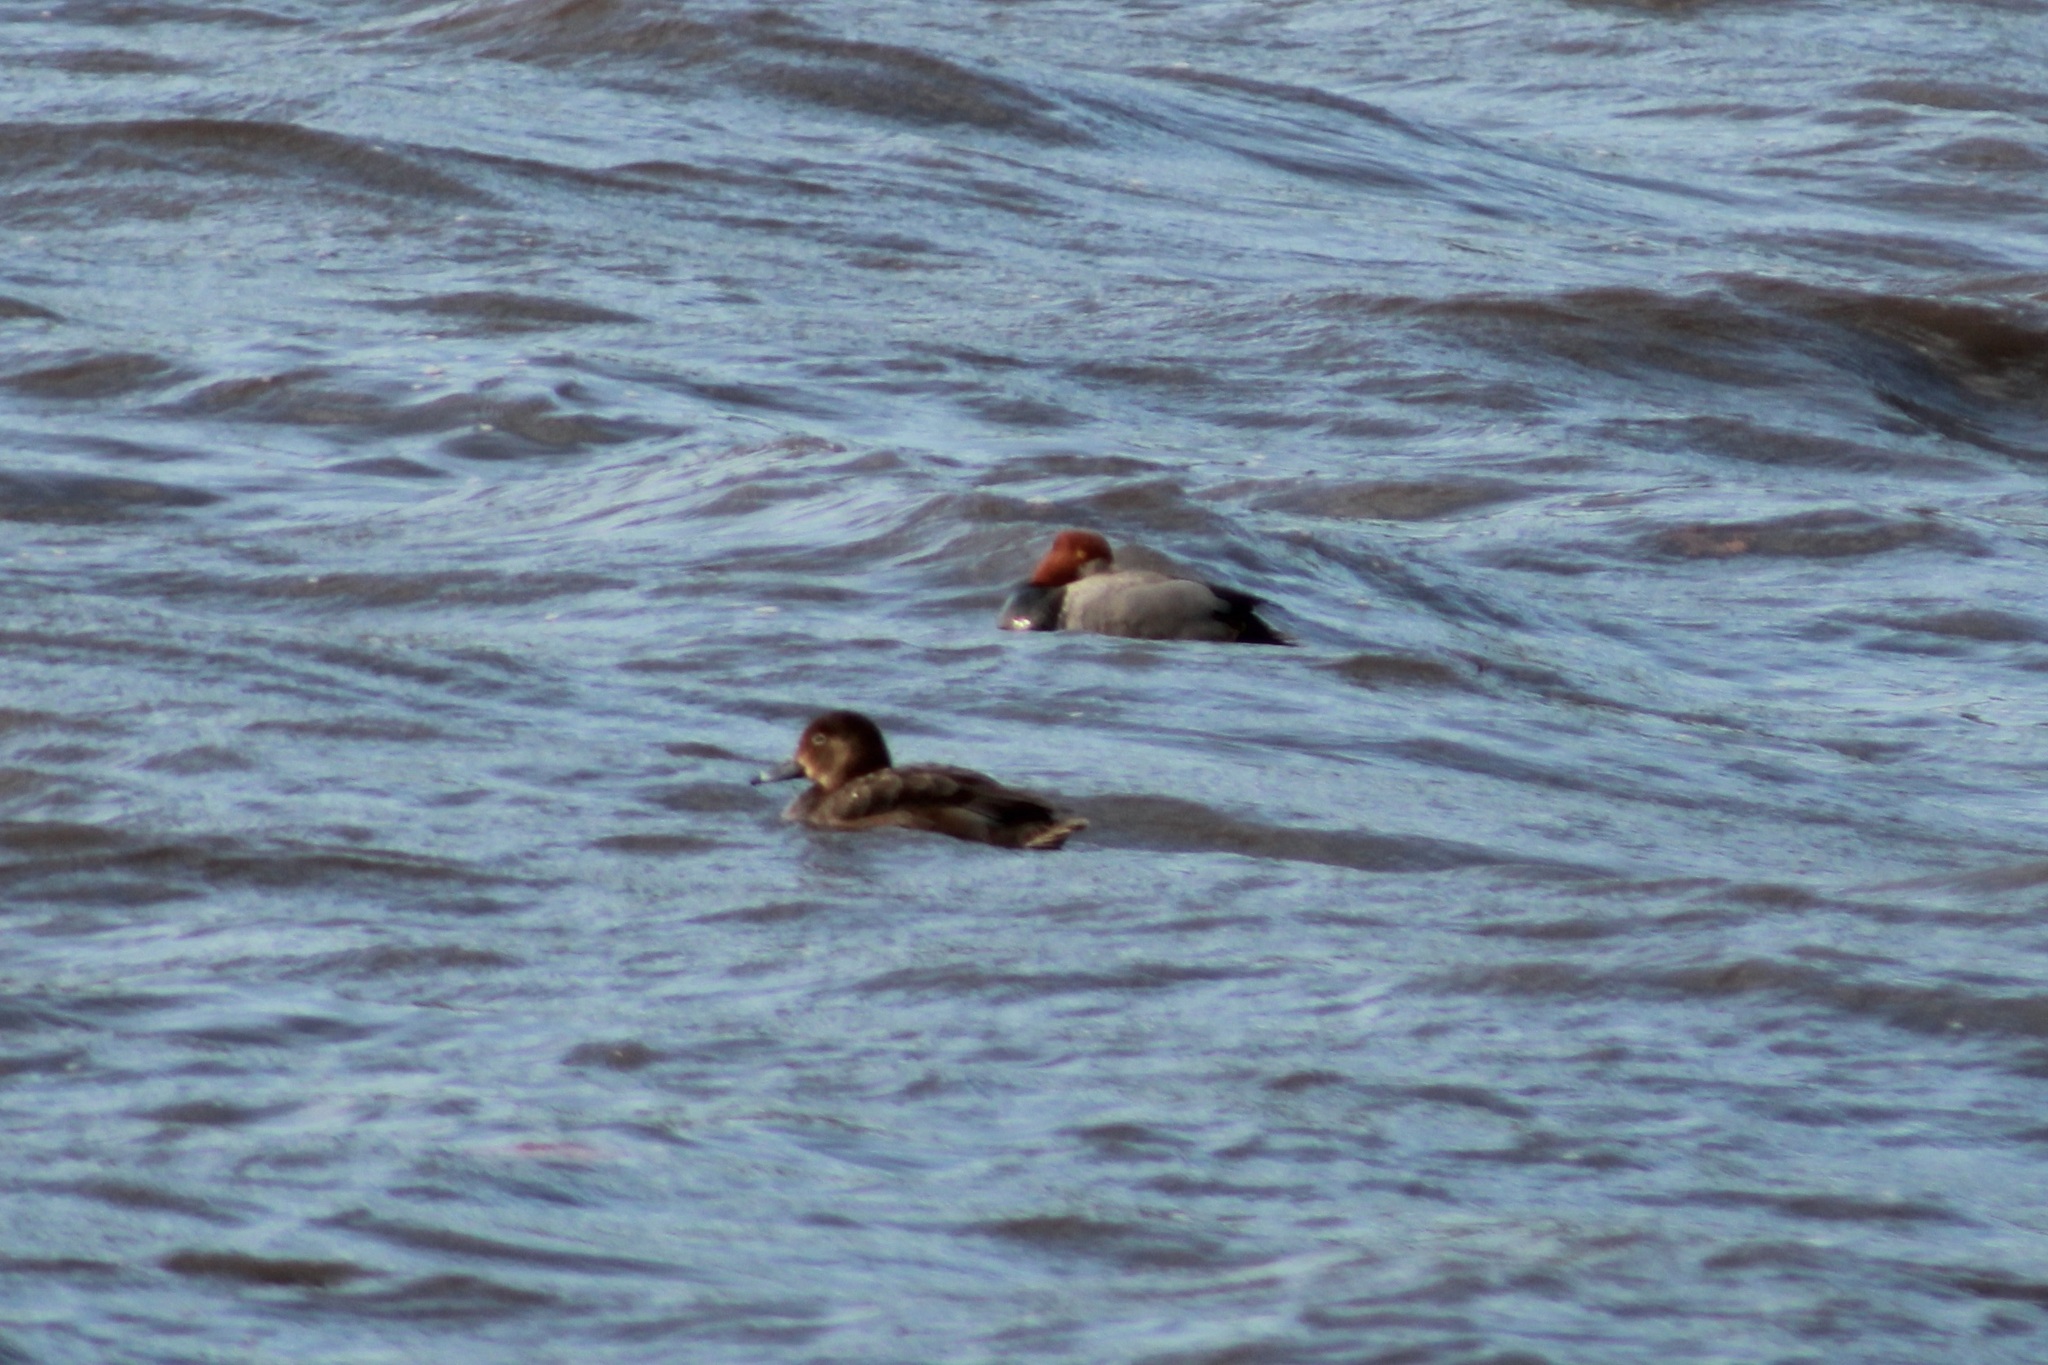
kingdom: Animalia
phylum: Chordata
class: Aves
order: Anseriformes
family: Anatidae
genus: Aythya
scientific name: Aythya americana
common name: Redhead
